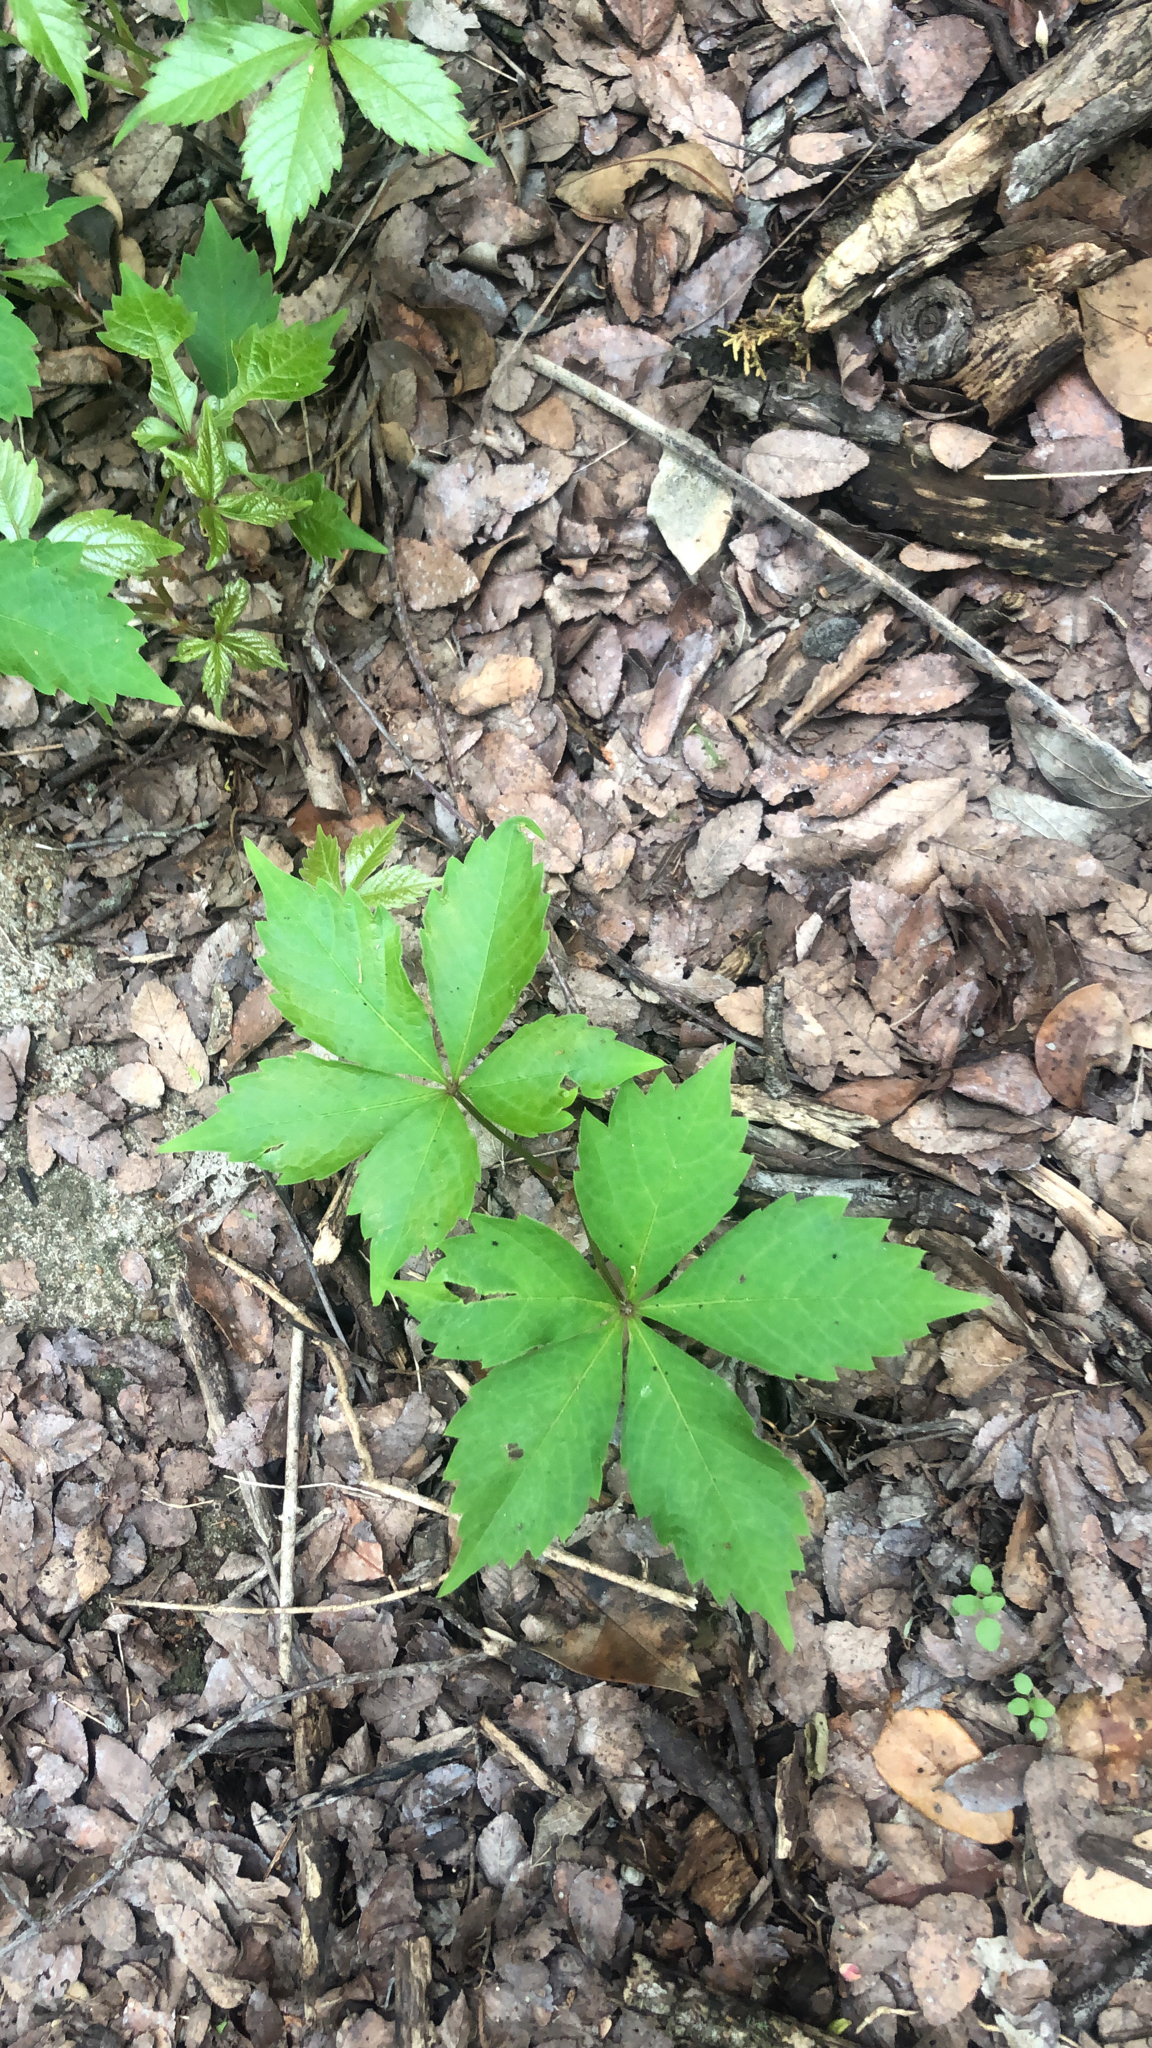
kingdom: Plantae
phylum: Tracheophyta
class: Magnoliopsida
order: Vitales
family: Vitaceae
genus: Parthenocissus
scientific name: Parthenocissus quinquefolia
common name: Virginia-creeper
